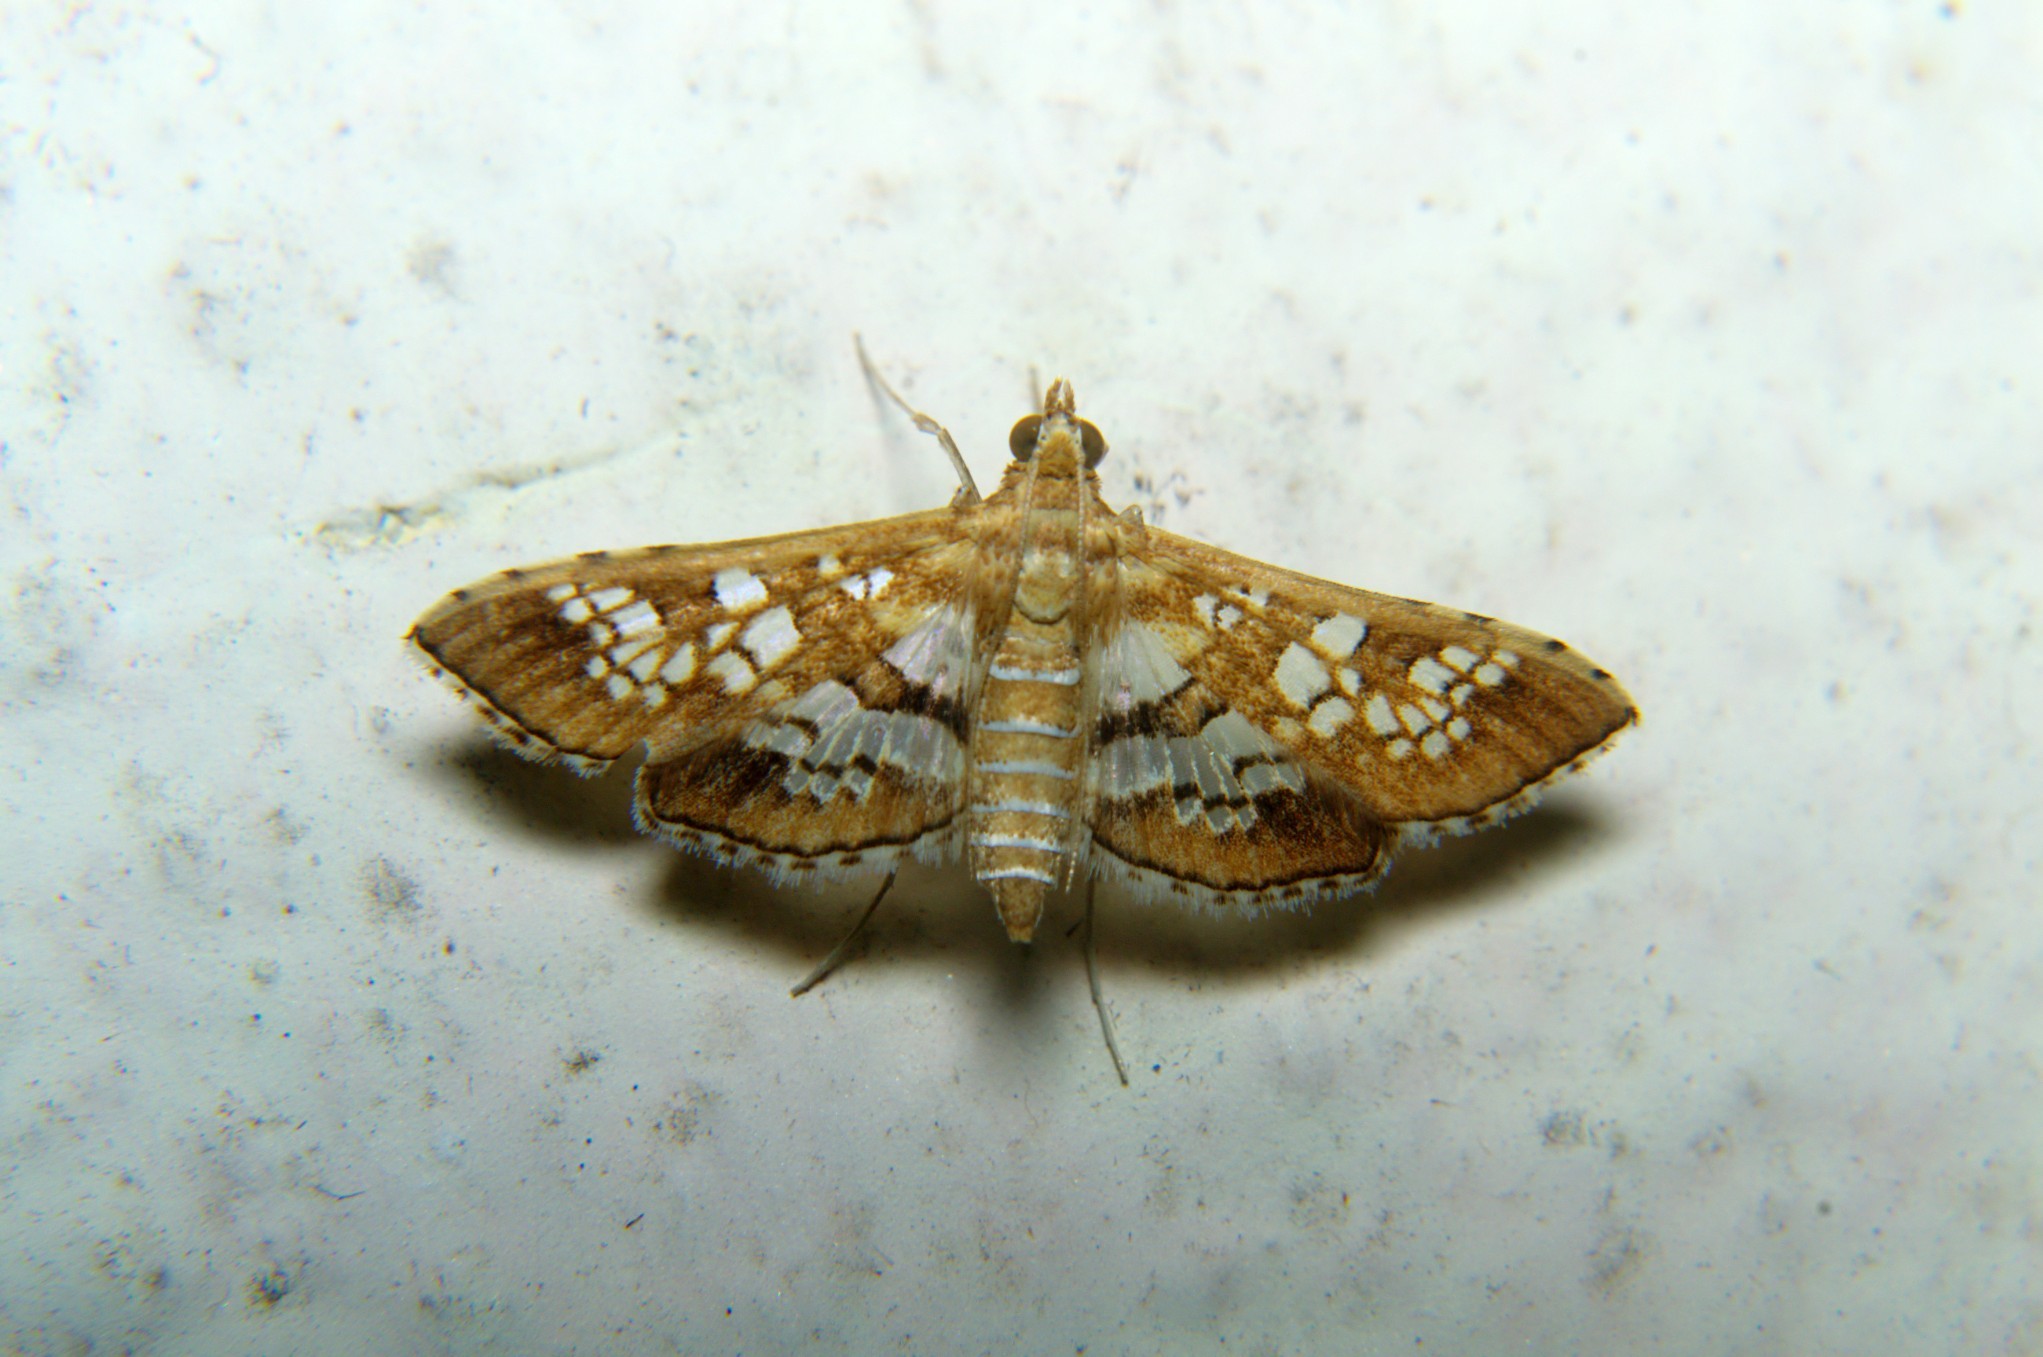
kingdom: Animalia
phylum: Arthropoda
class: Insecta
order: Lepidoptera
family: Crambidae
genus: Sameodes
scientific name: Sameodes cancellalis
